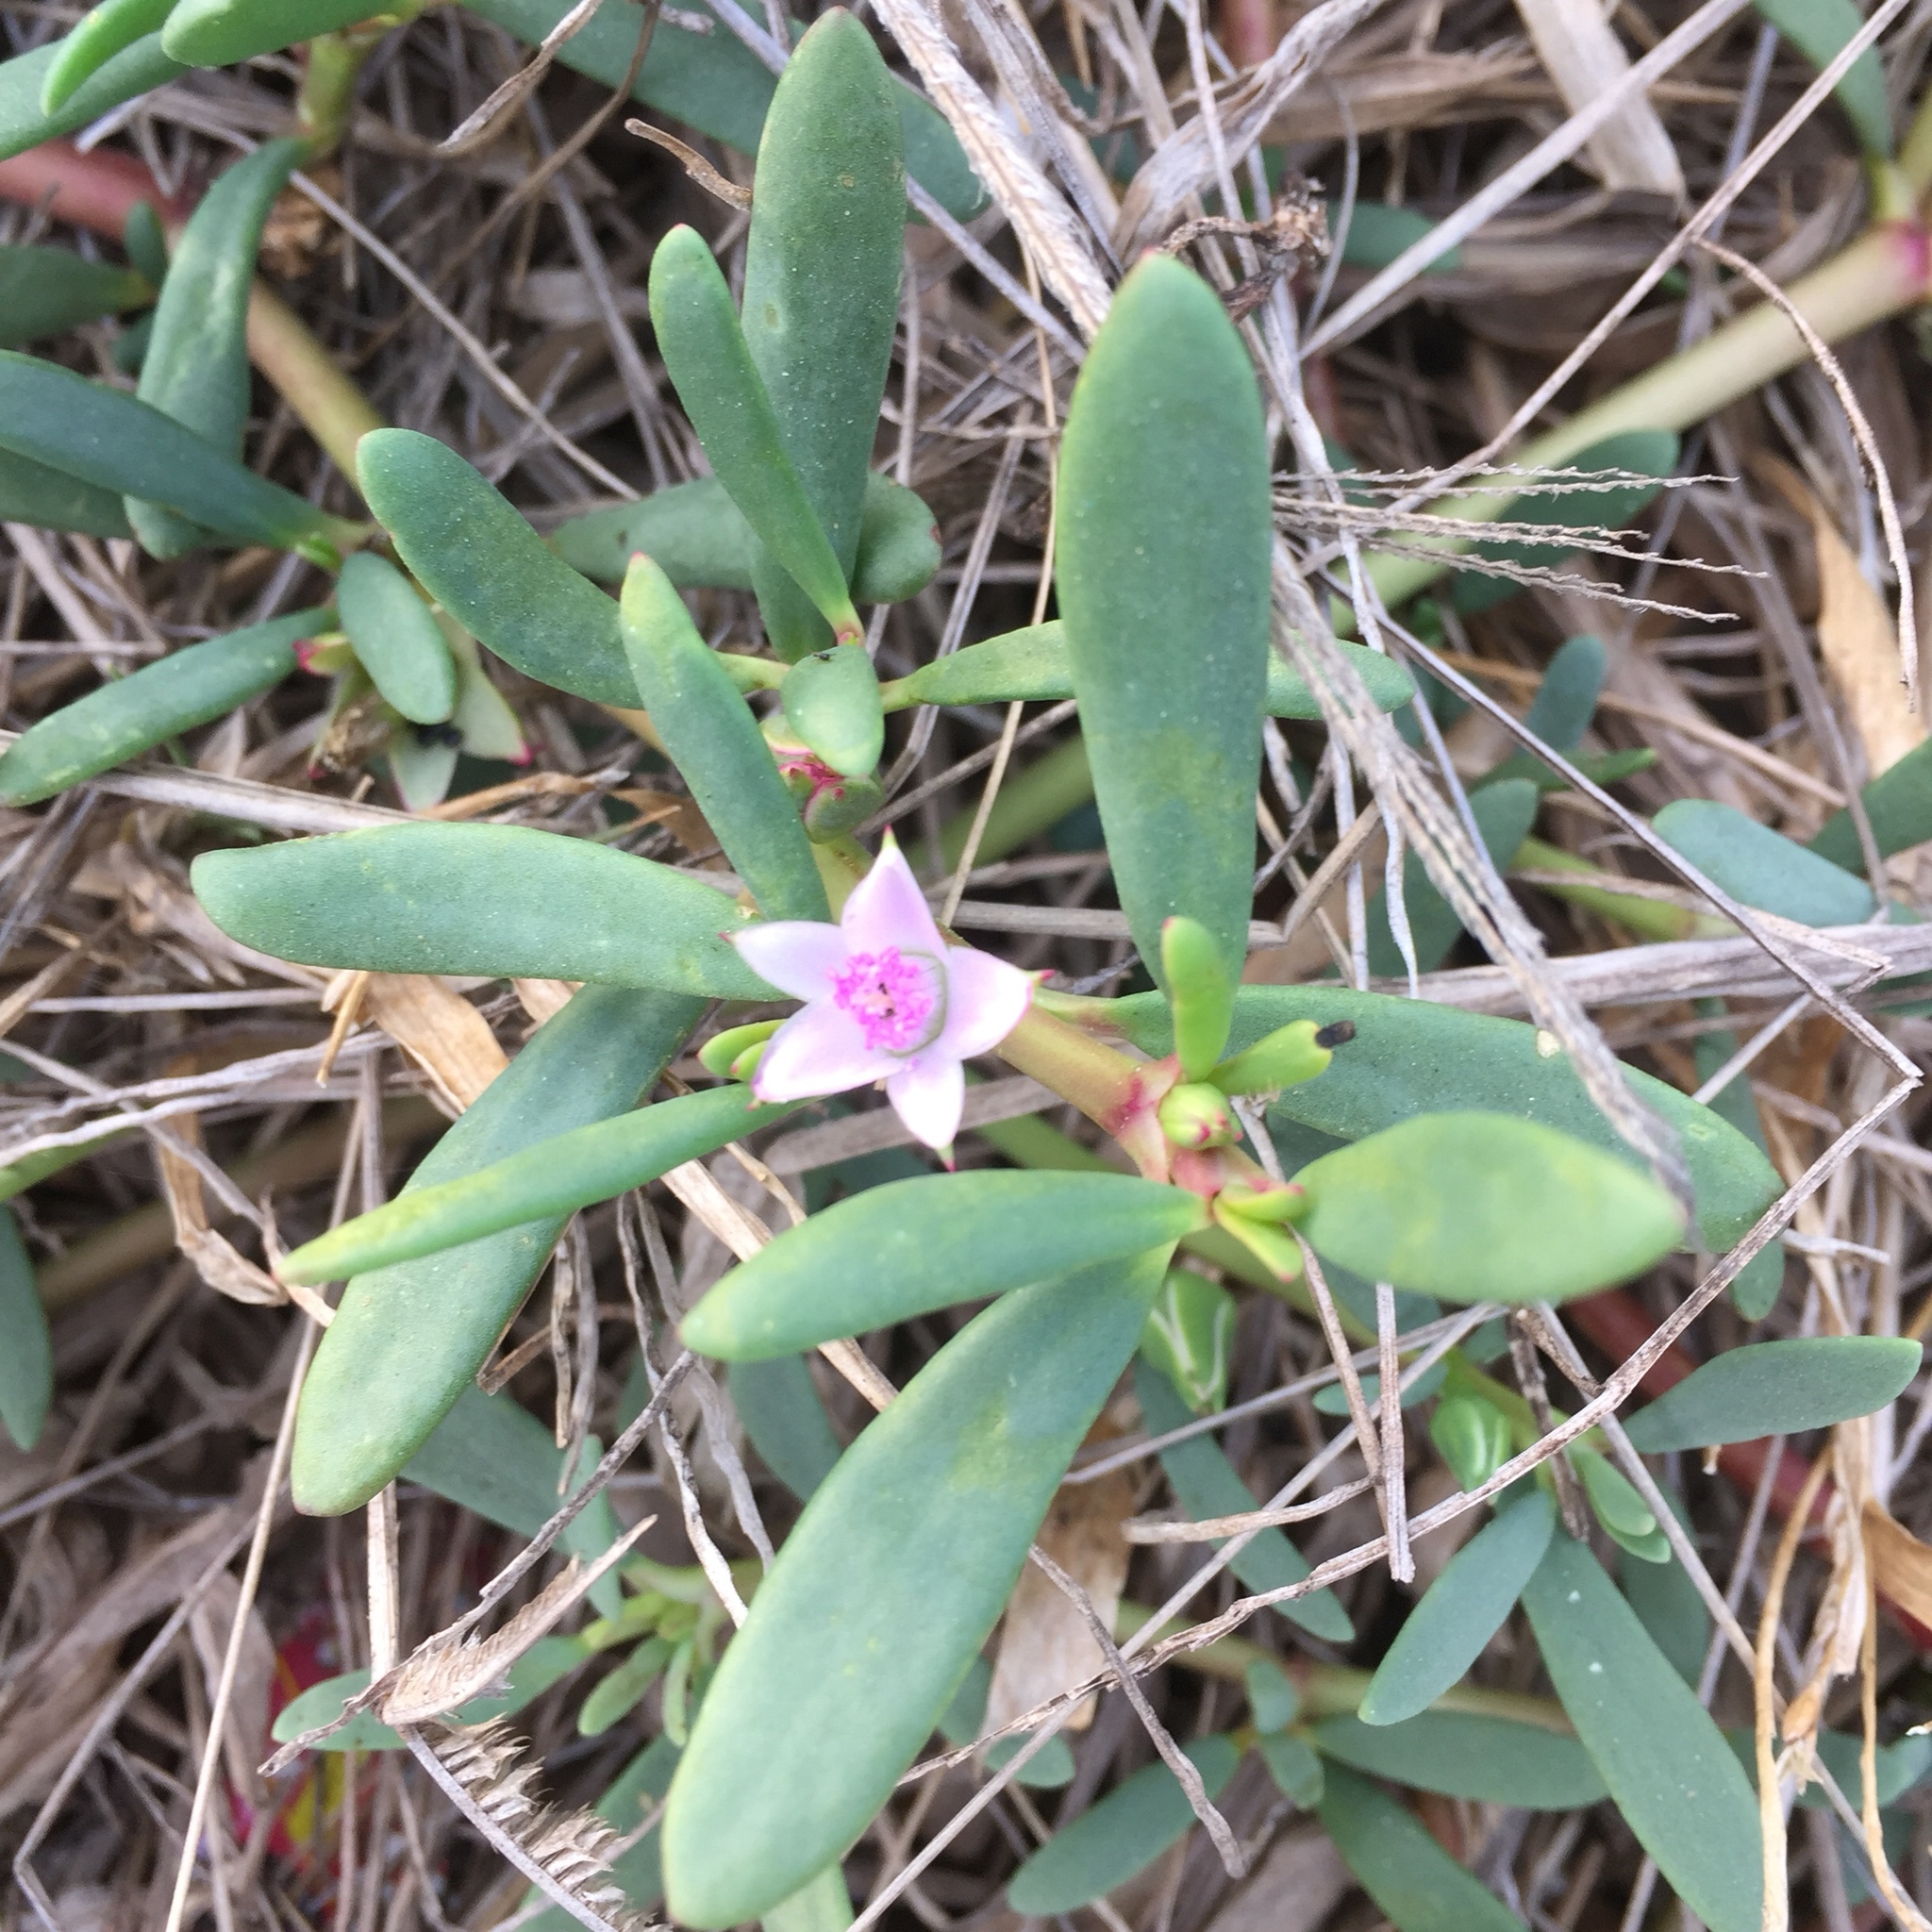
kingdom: Plantae
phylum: Tracheophyta
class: Magnoliopsida
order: Caryophyllales
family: Aizoaceae
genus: Sesuvium
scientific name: Sesuvium portulacastrum
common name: Sea-purslane
